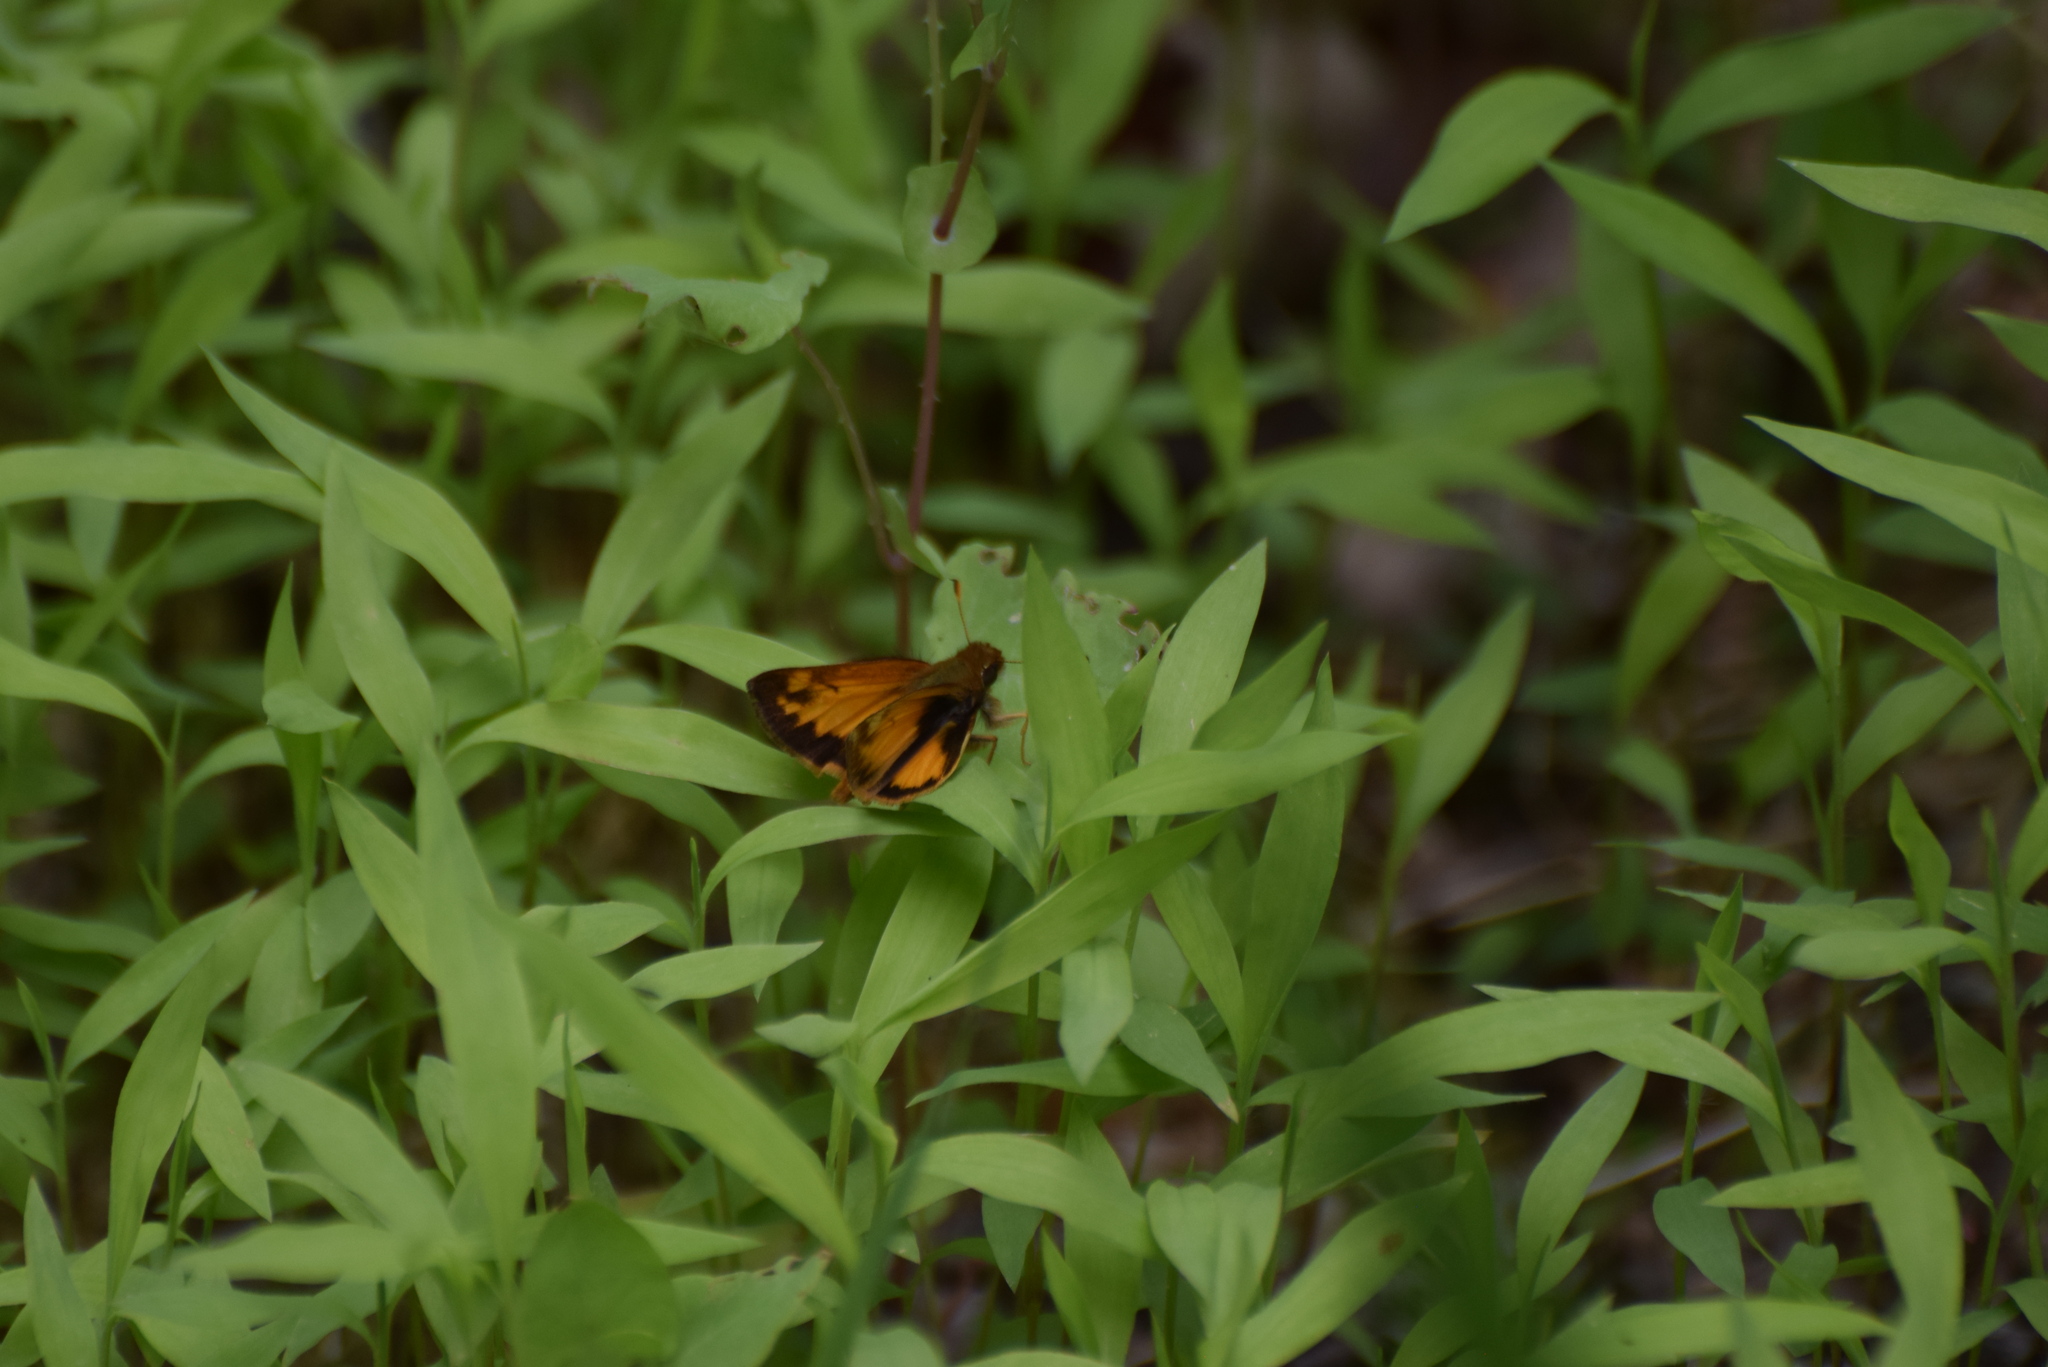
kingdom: Animalia
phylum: Arthropoda
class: Insecta
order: Lepidoptera
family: Hesperiidae
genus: Lon
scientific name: Lon zabulon
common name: Zabulon skipper
